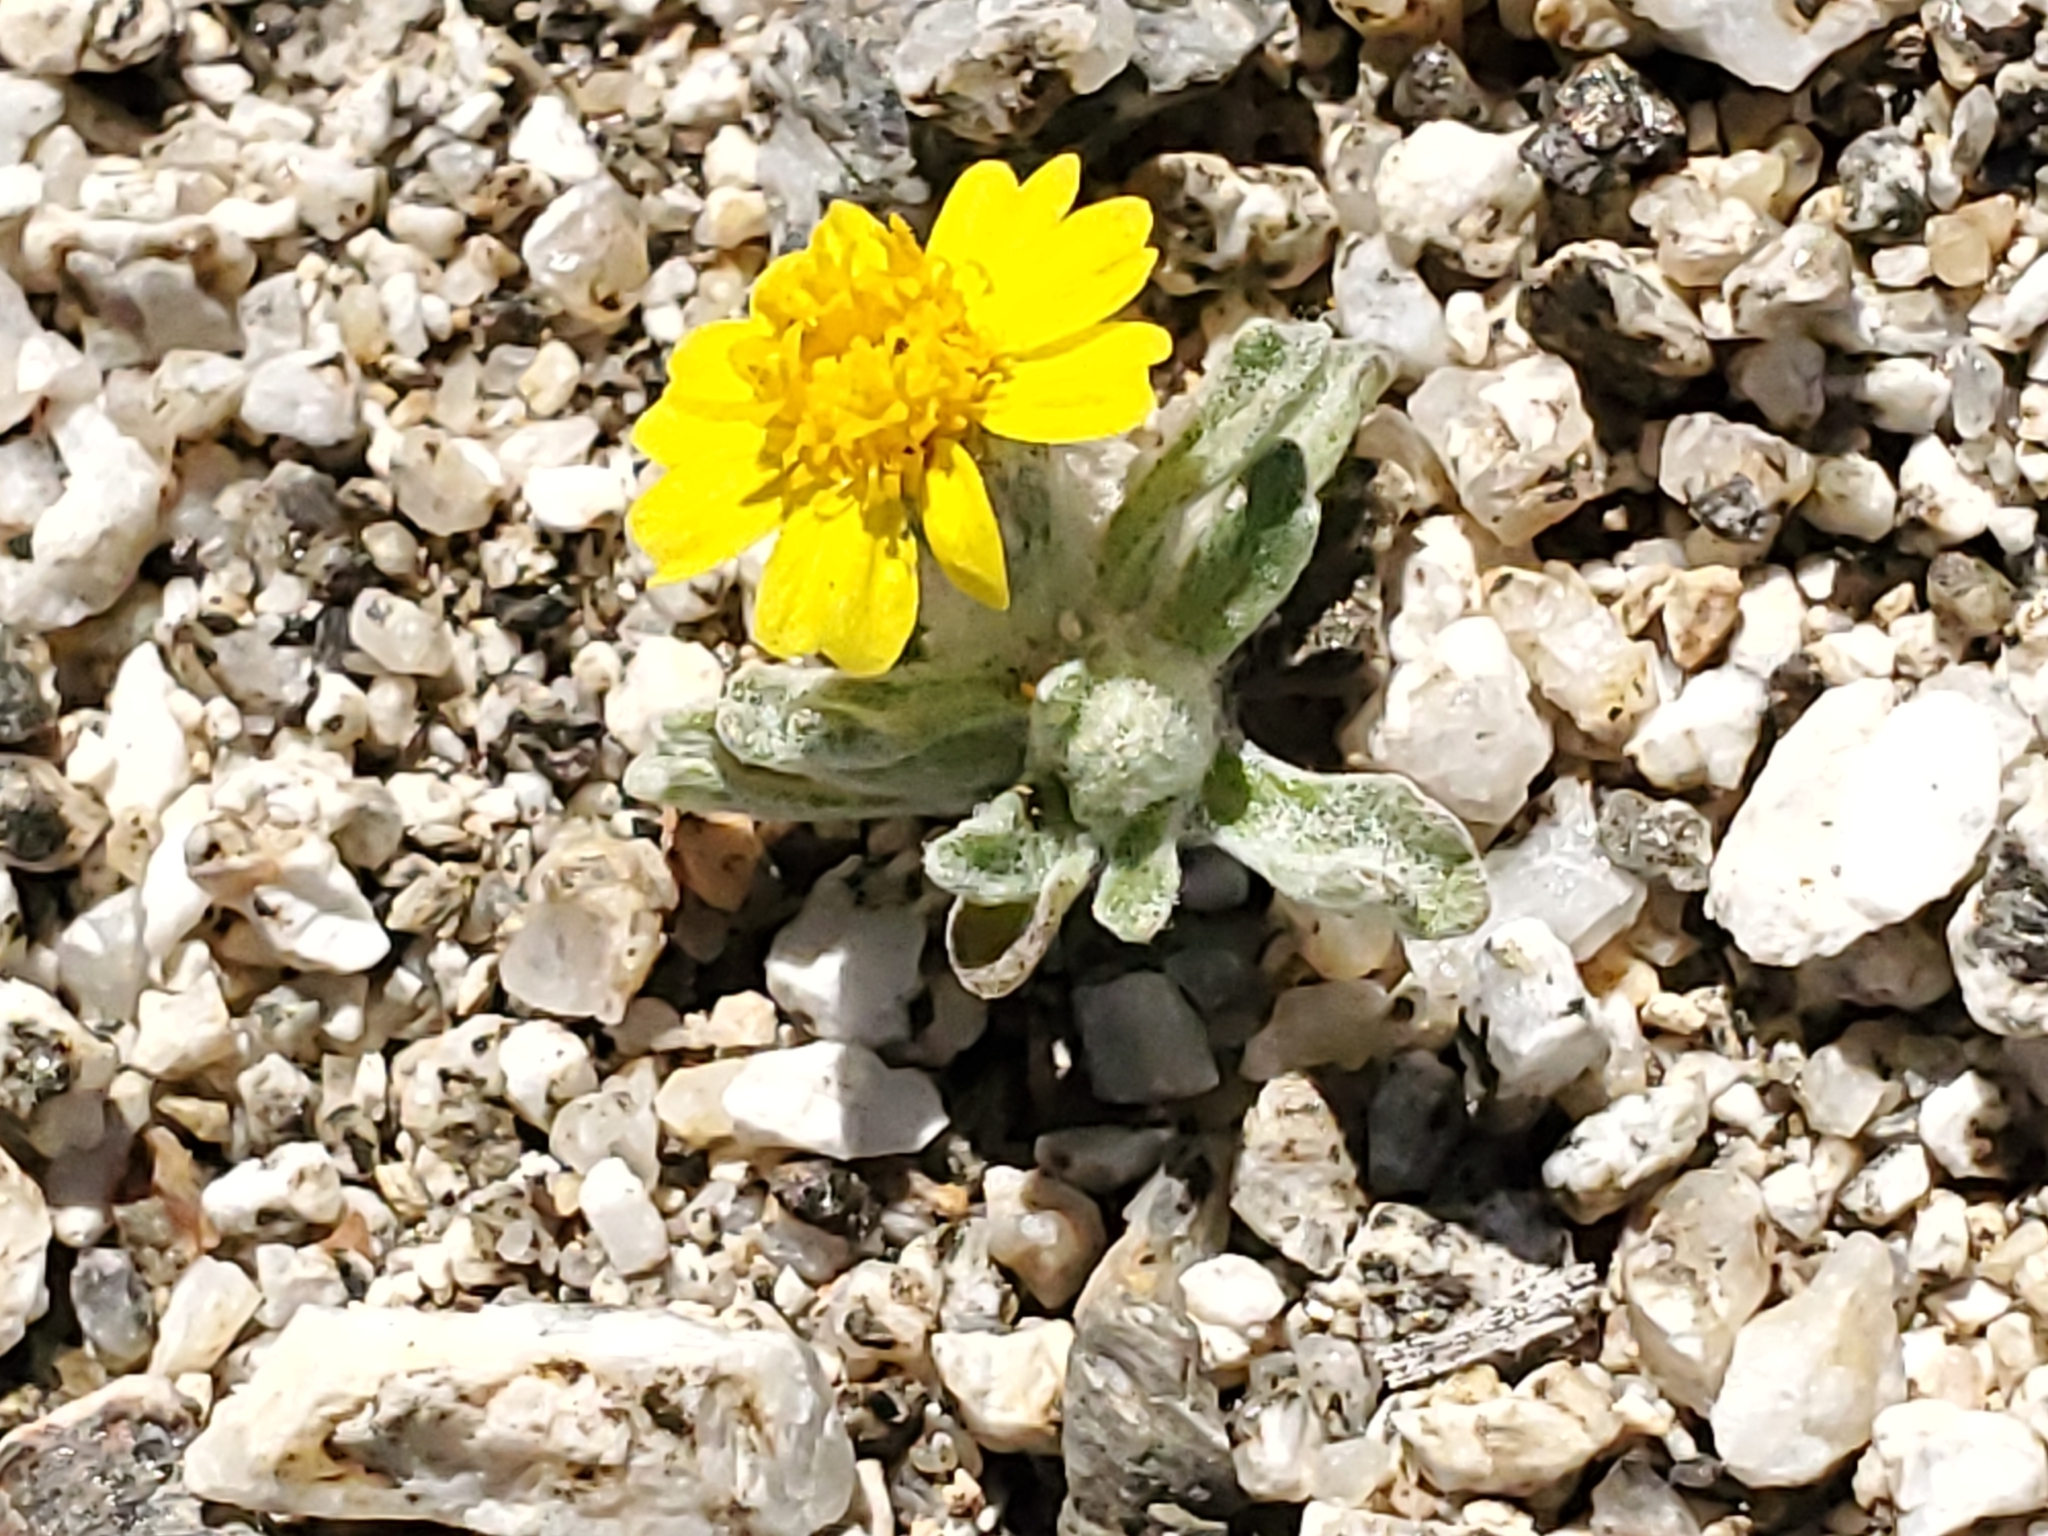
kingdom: Plantae
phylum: Tracheophyta
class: Magnoliopsida
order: Asterales
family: Asteraceae
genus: Eriophyllum
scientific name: Eriophyllum wallacei
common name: Wallace's woolly daisy
